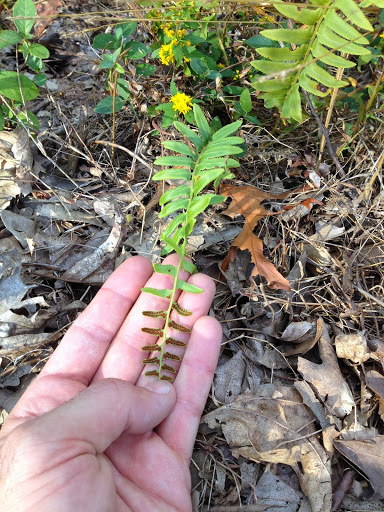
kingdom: Plantae
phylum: Tracheophyta
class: Polypodiopsida
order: Polypodiales
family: Dryopteridaceae
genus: Polystichum
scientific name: Polystichum acrostichoides
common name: Christmas fern
